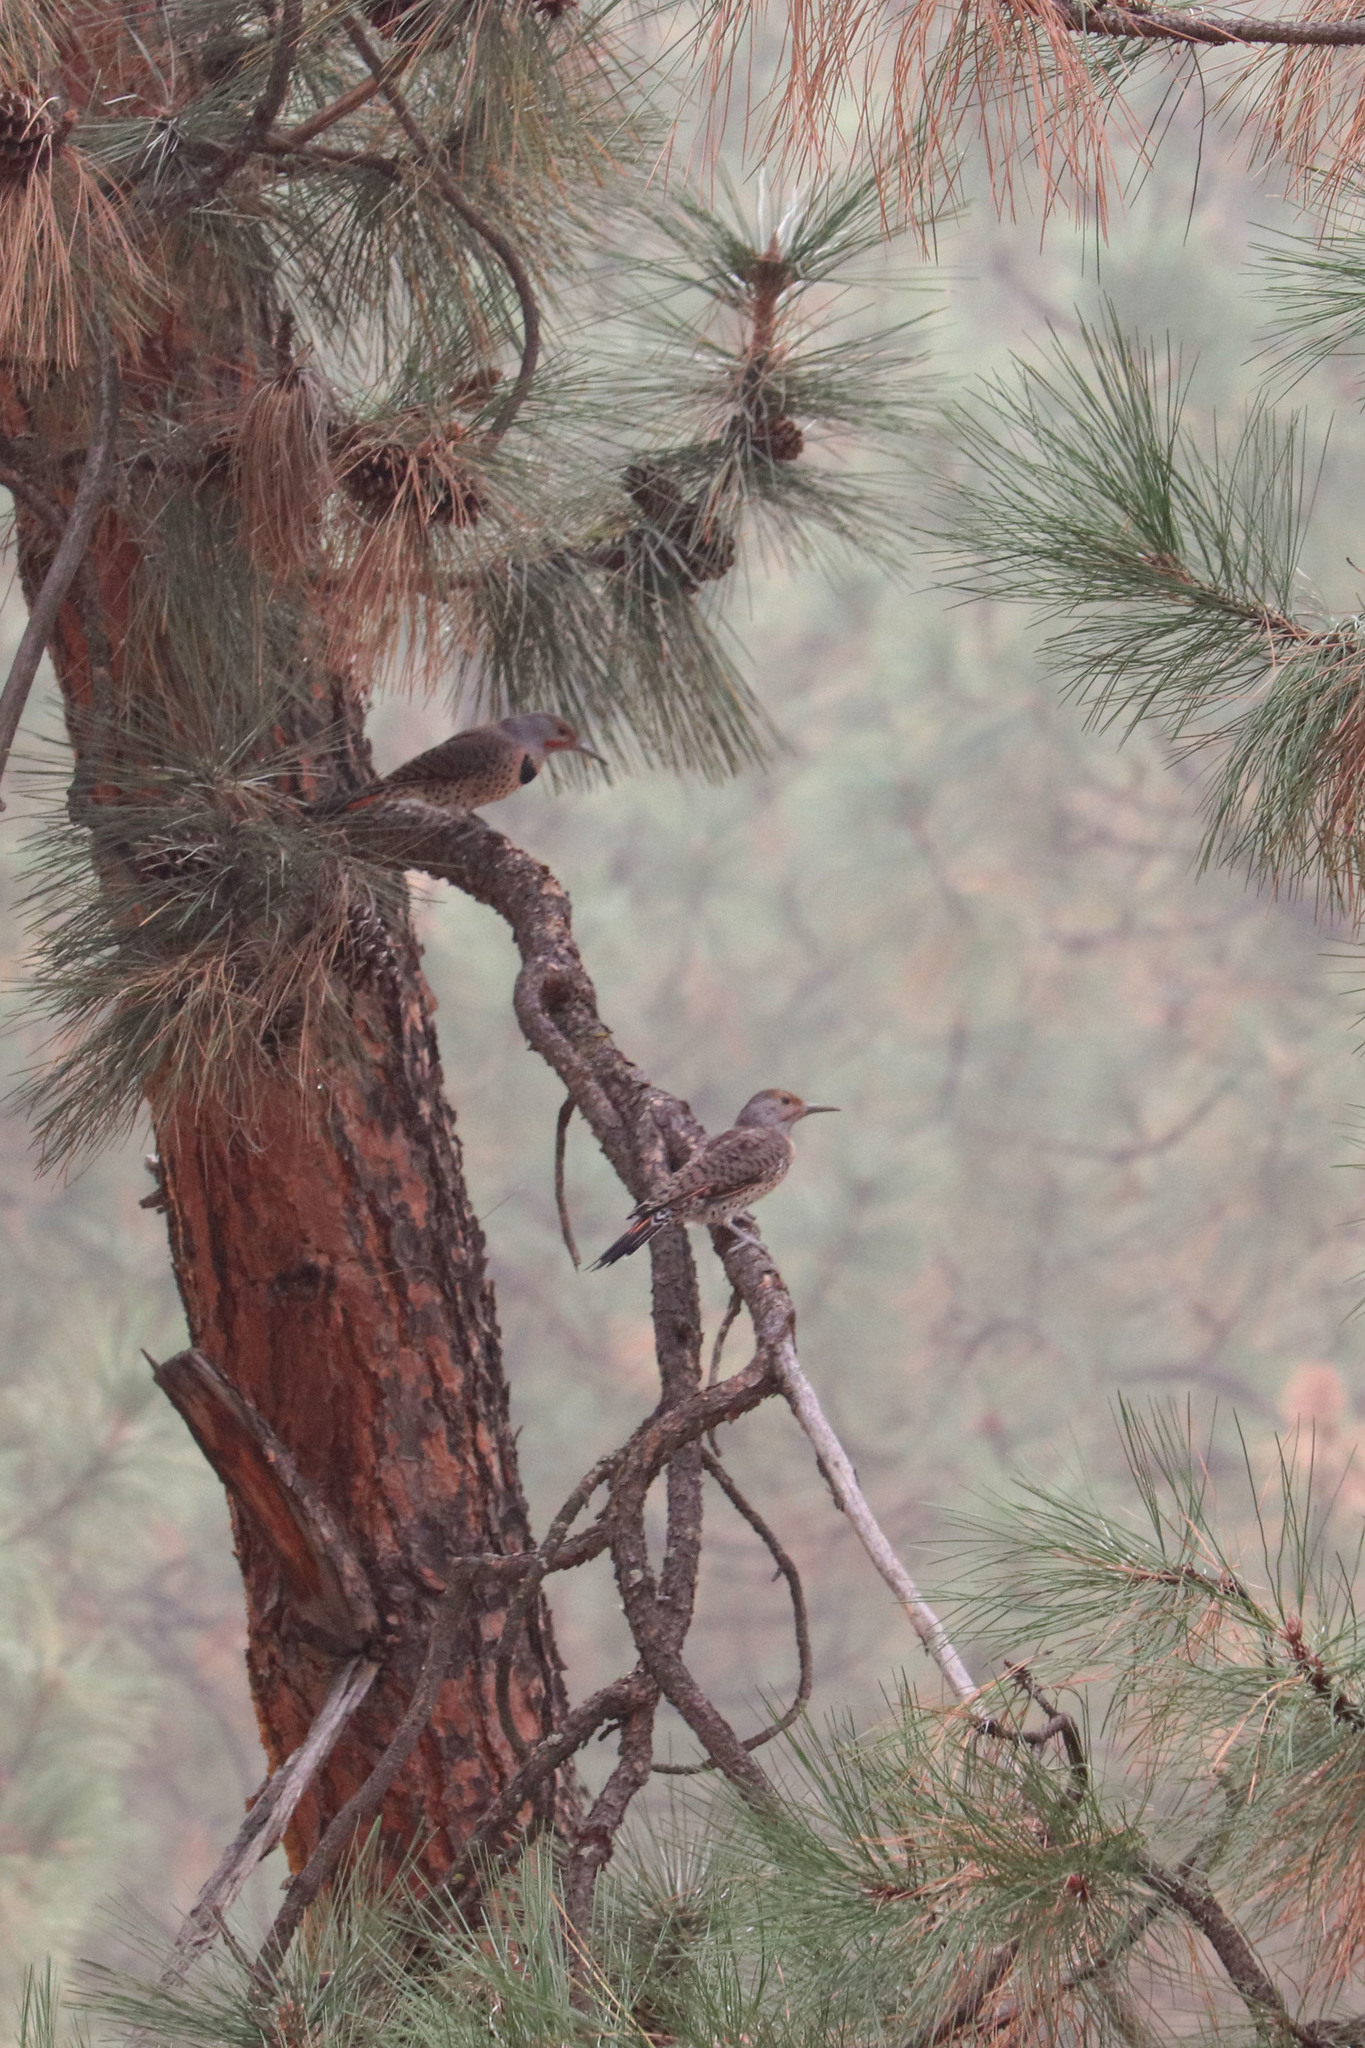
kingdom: Animalia
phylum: Chordata
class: Aves
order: Piciformes
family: Picidae
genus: Colaptes
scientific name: Colaptes auratus
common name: Northern flicker
